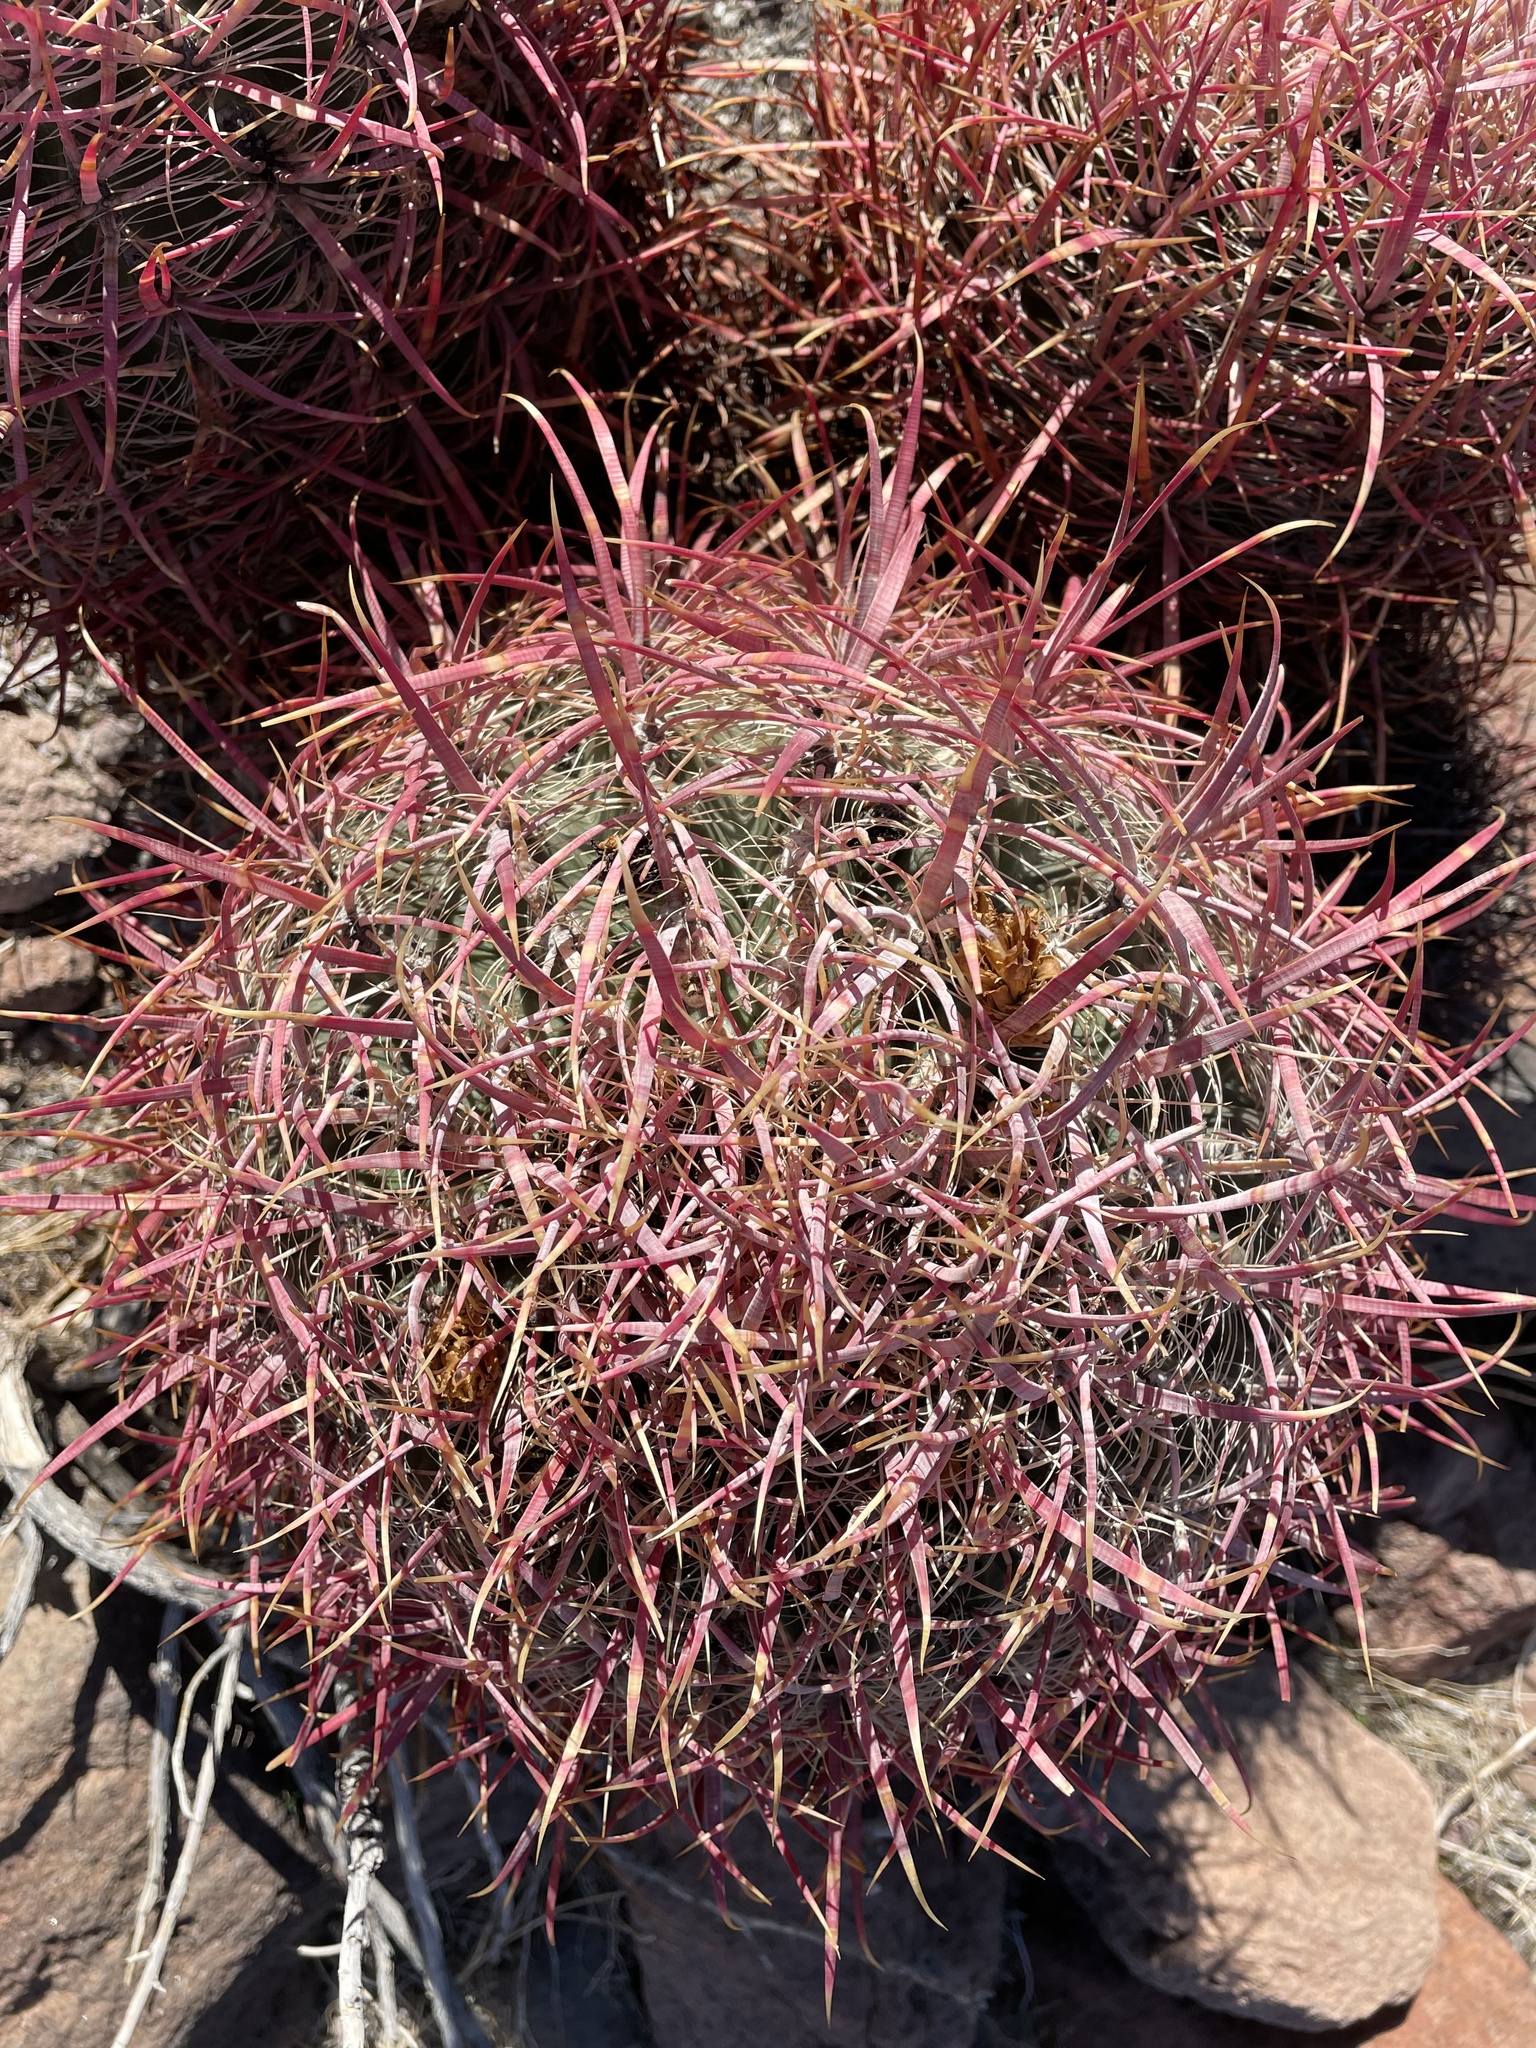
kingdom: Plantae
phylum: Tracheophyta
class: Magnoliopsida
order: Caryophyllales
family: Cactaceae
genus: Ferocactus
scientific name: Ferocactus cylindraceus
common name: California barrel cactus
